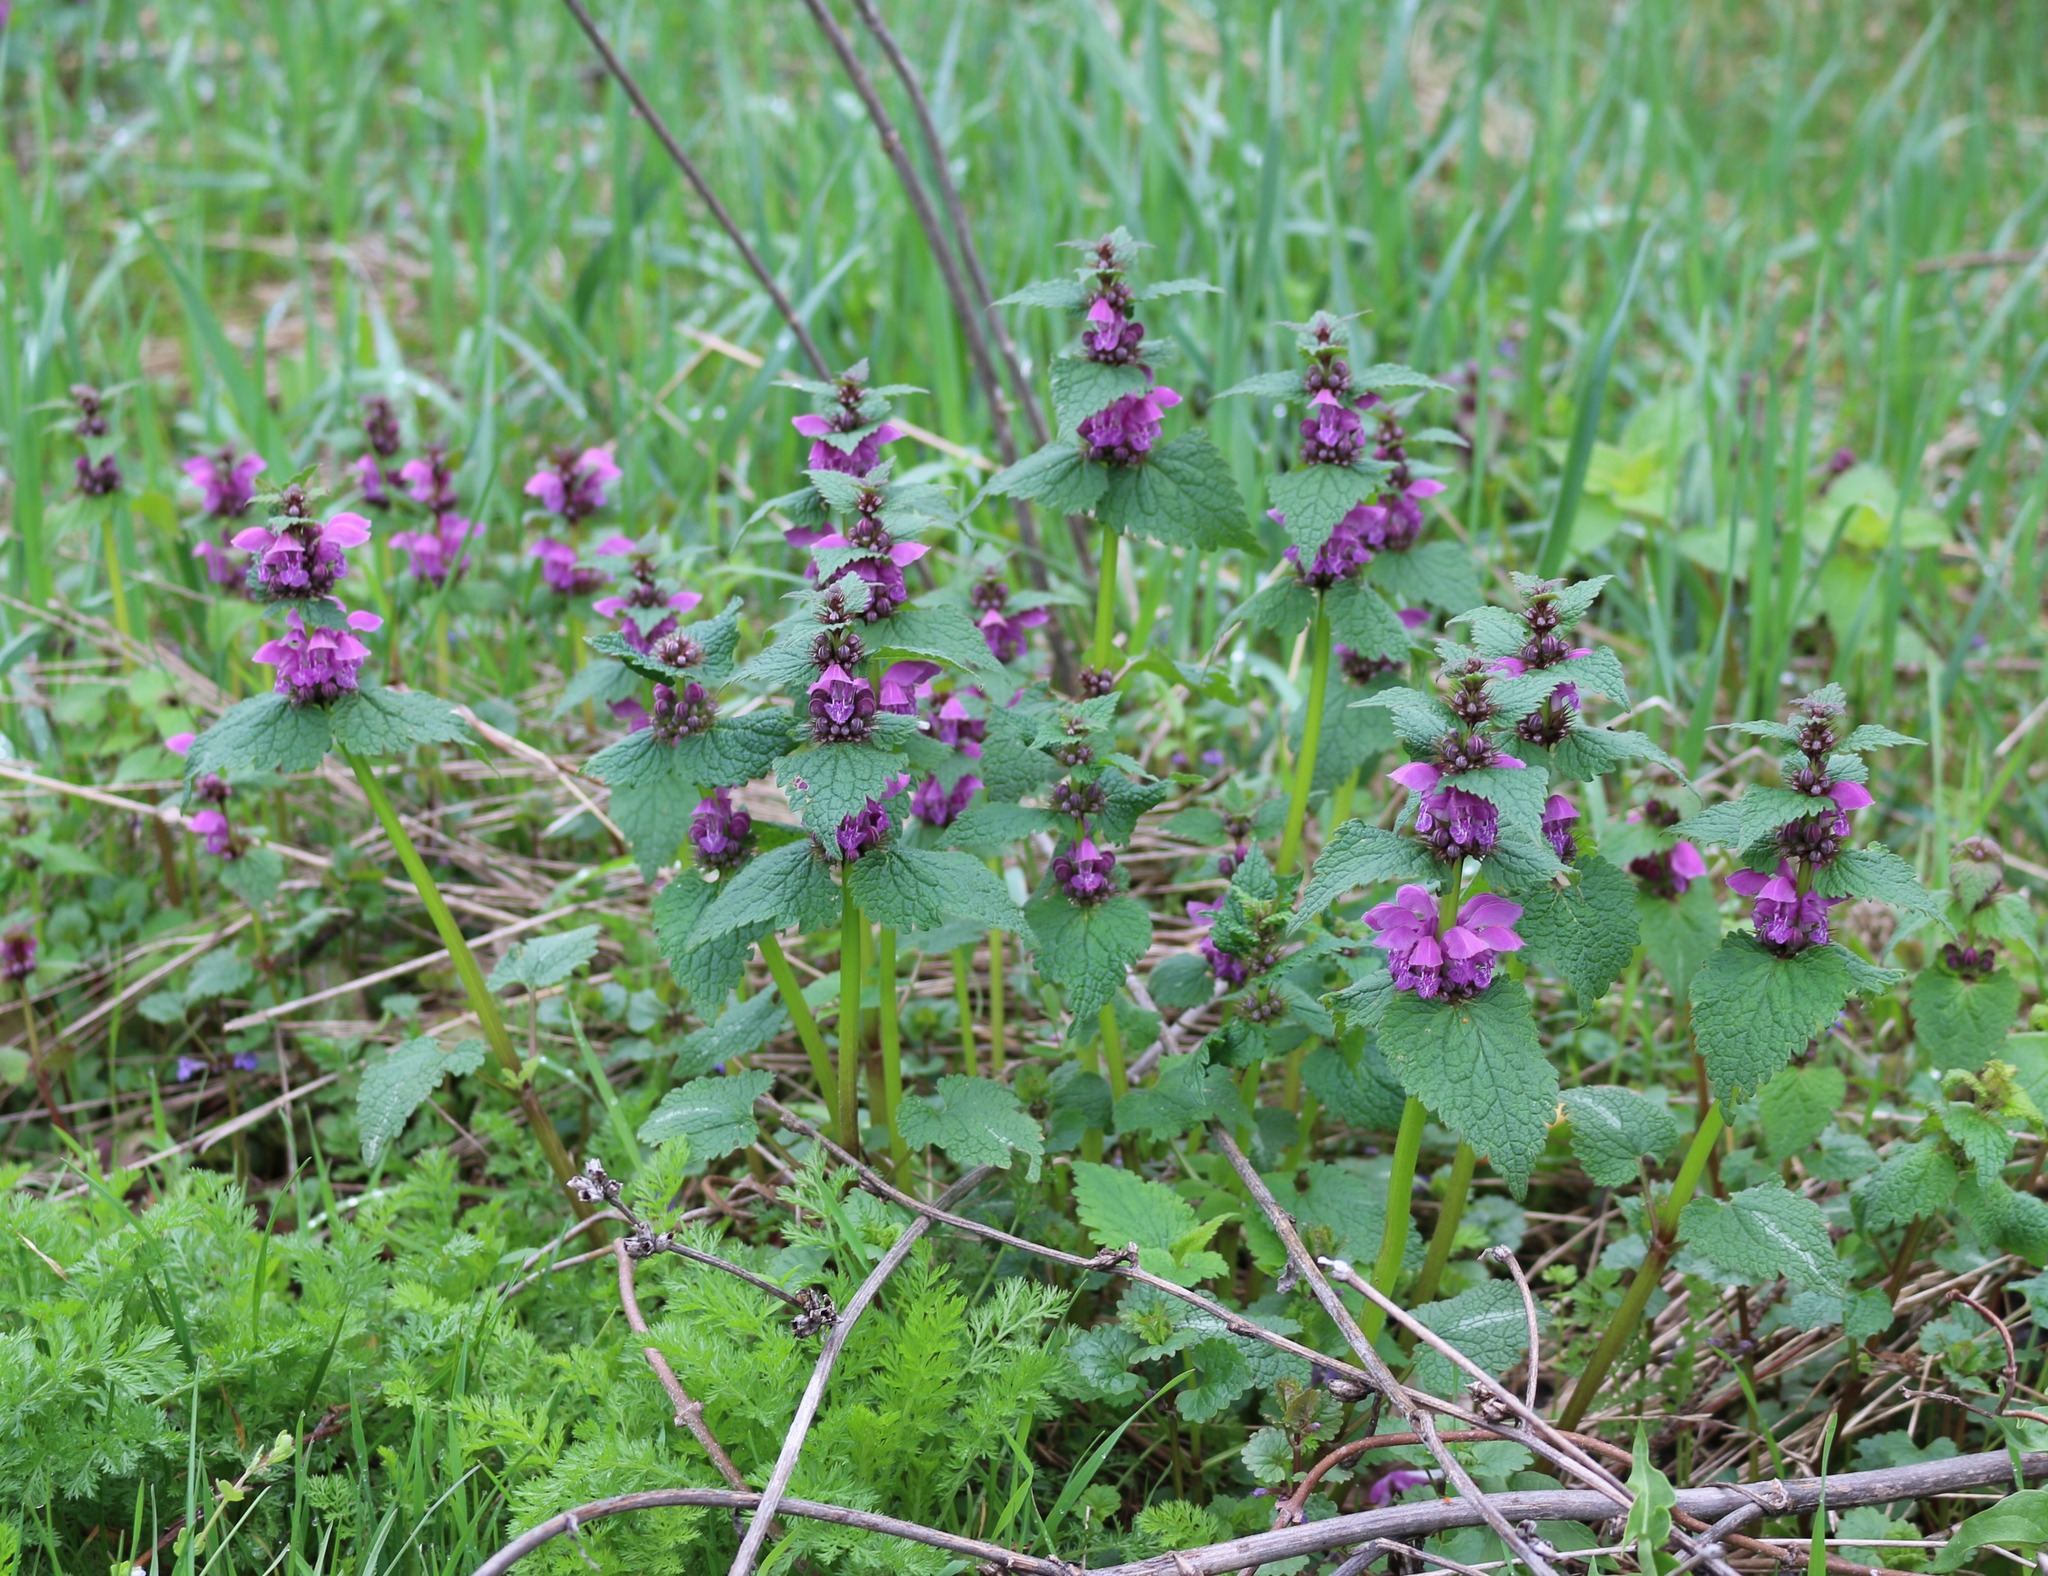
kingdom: Plantae
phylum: Tracheophyta
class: Magnoliopsida
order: Lamiales
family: Lamiaceae
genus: Lamium
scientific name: Lamium maculatum
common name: Spotted dead-nettle
